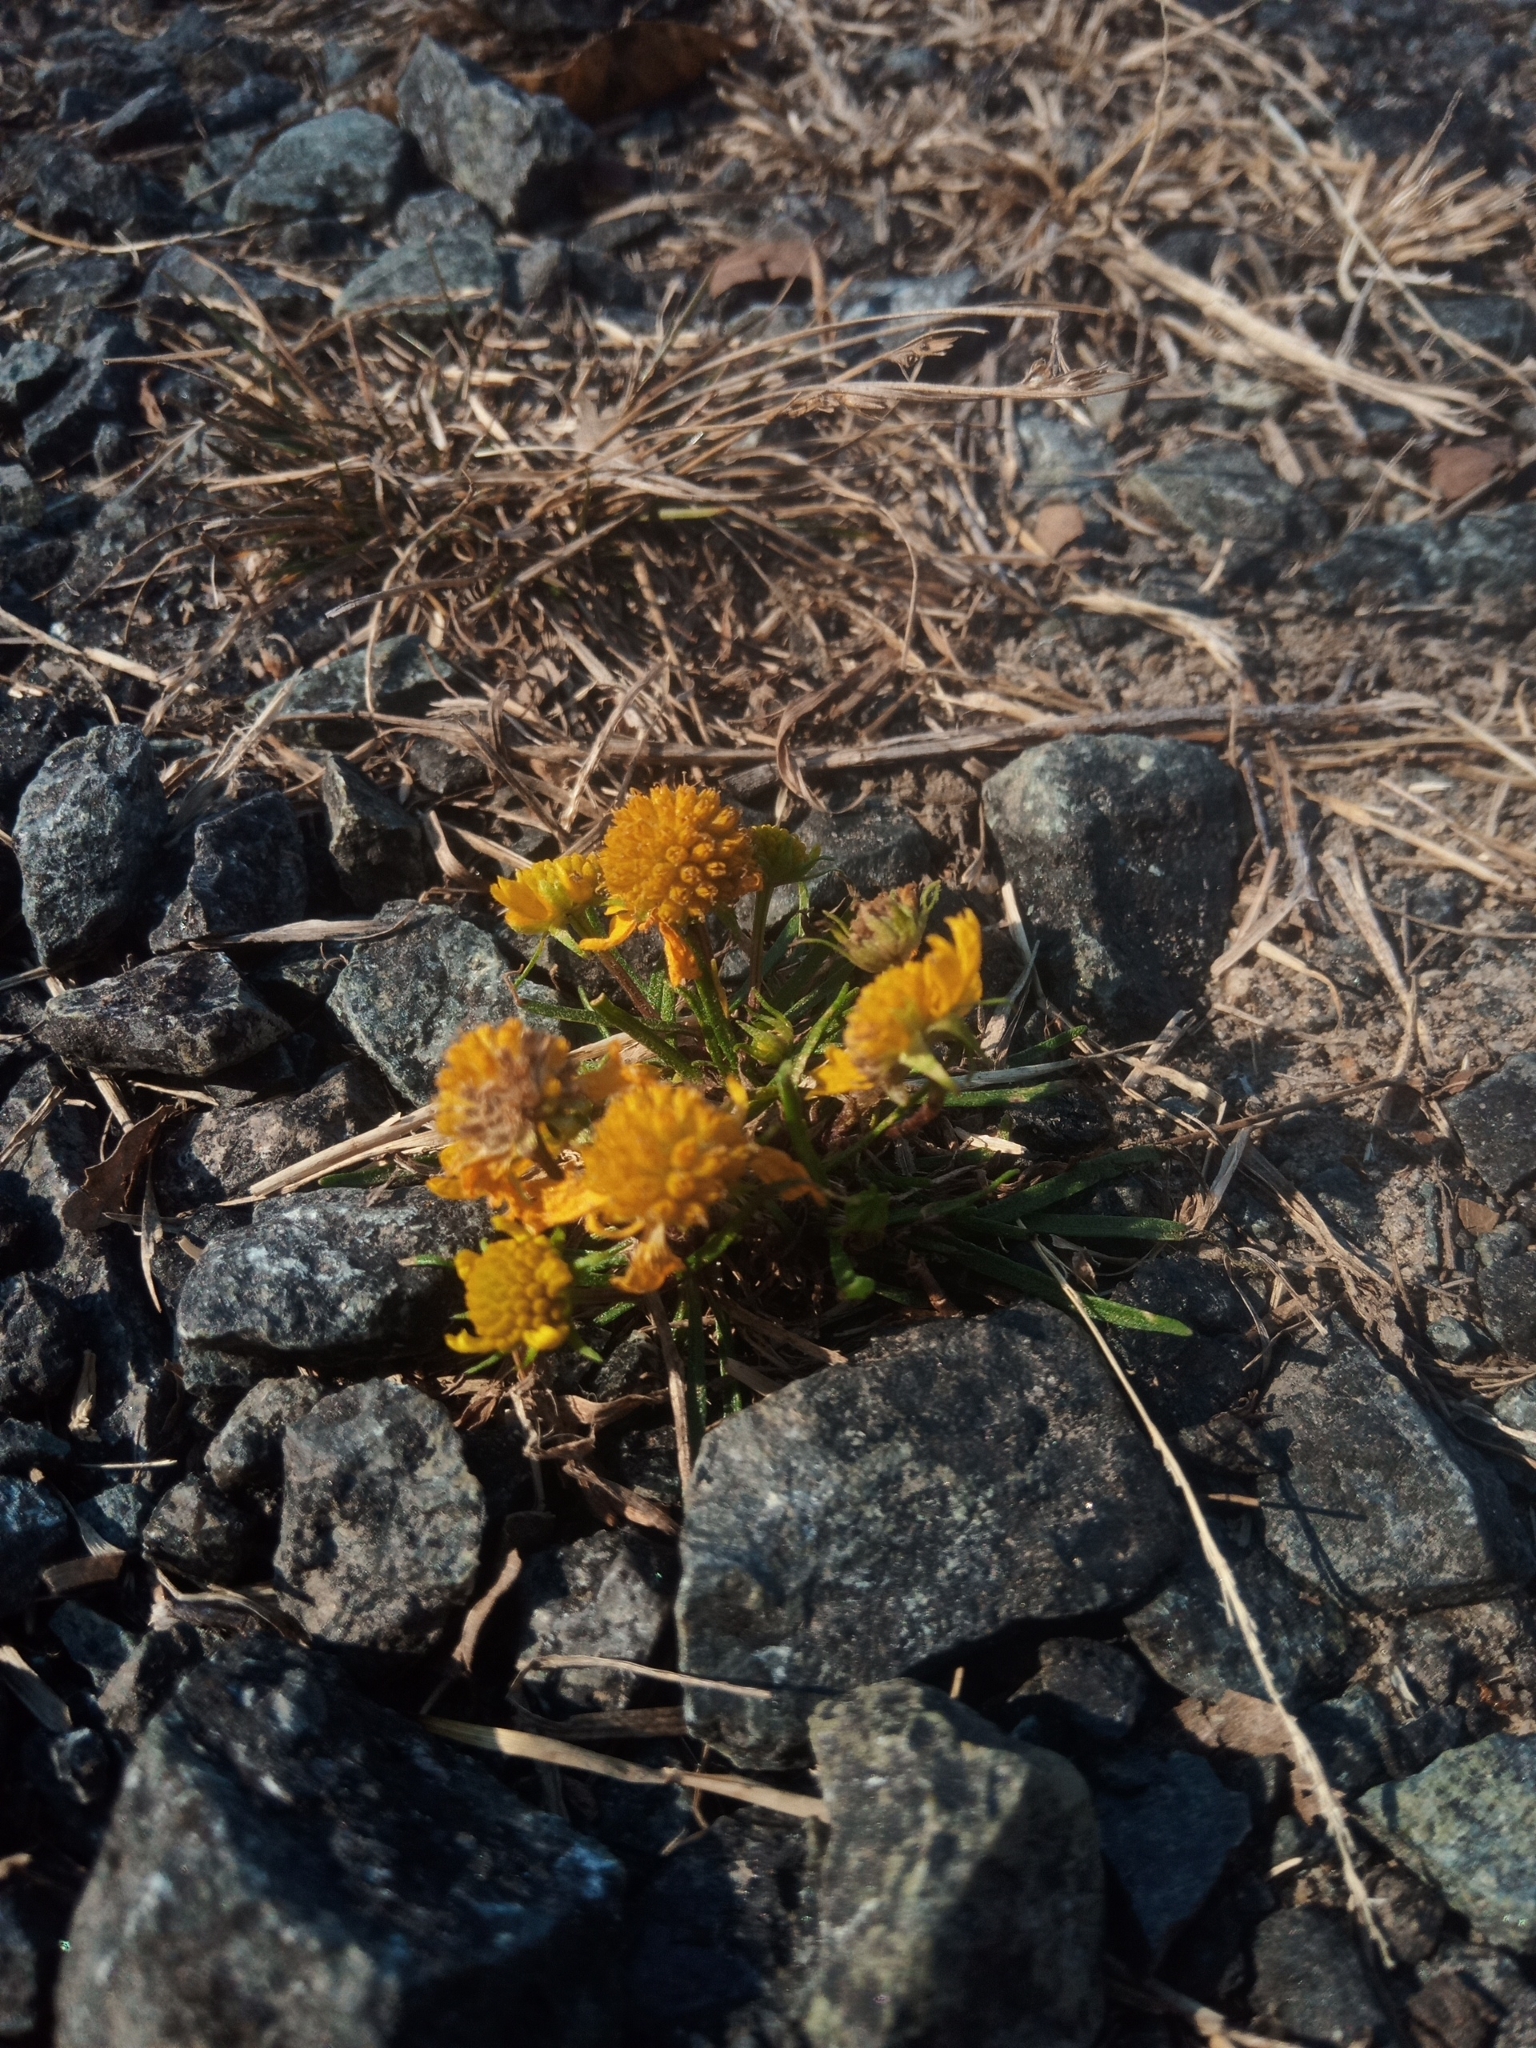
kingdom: Plantae
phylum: Tracheophyta
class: Magnoliopsida
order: Asterales
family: Asteraceae
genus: Helenium
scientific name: Helenium amarum
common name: Bitter sneezeweed
